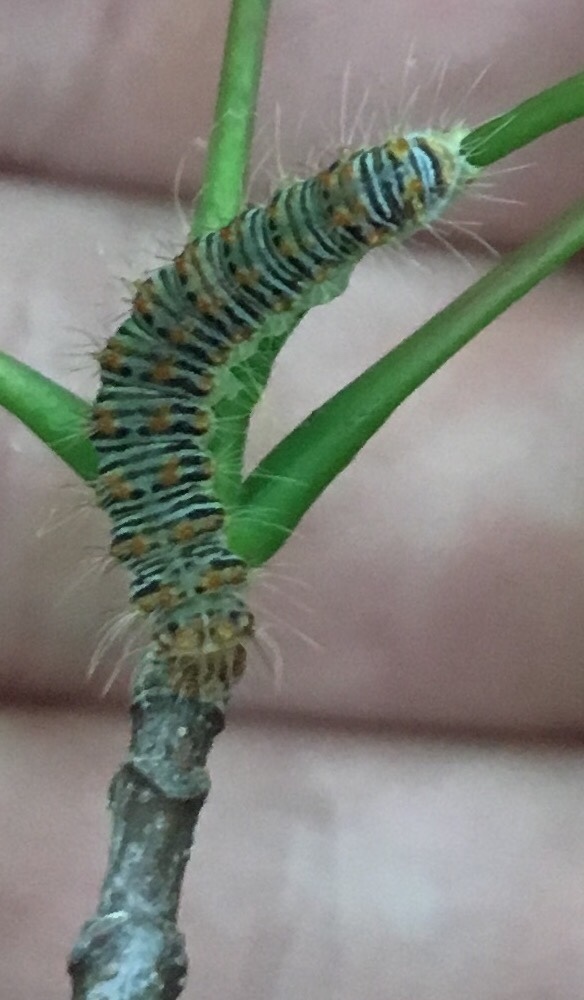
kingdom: Animalia
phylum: Arthropoda
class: Insecta
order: Lepidoptera
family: Noctuidae
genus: Acronicta
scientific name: Acronicta retardata
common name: Maple dagger
